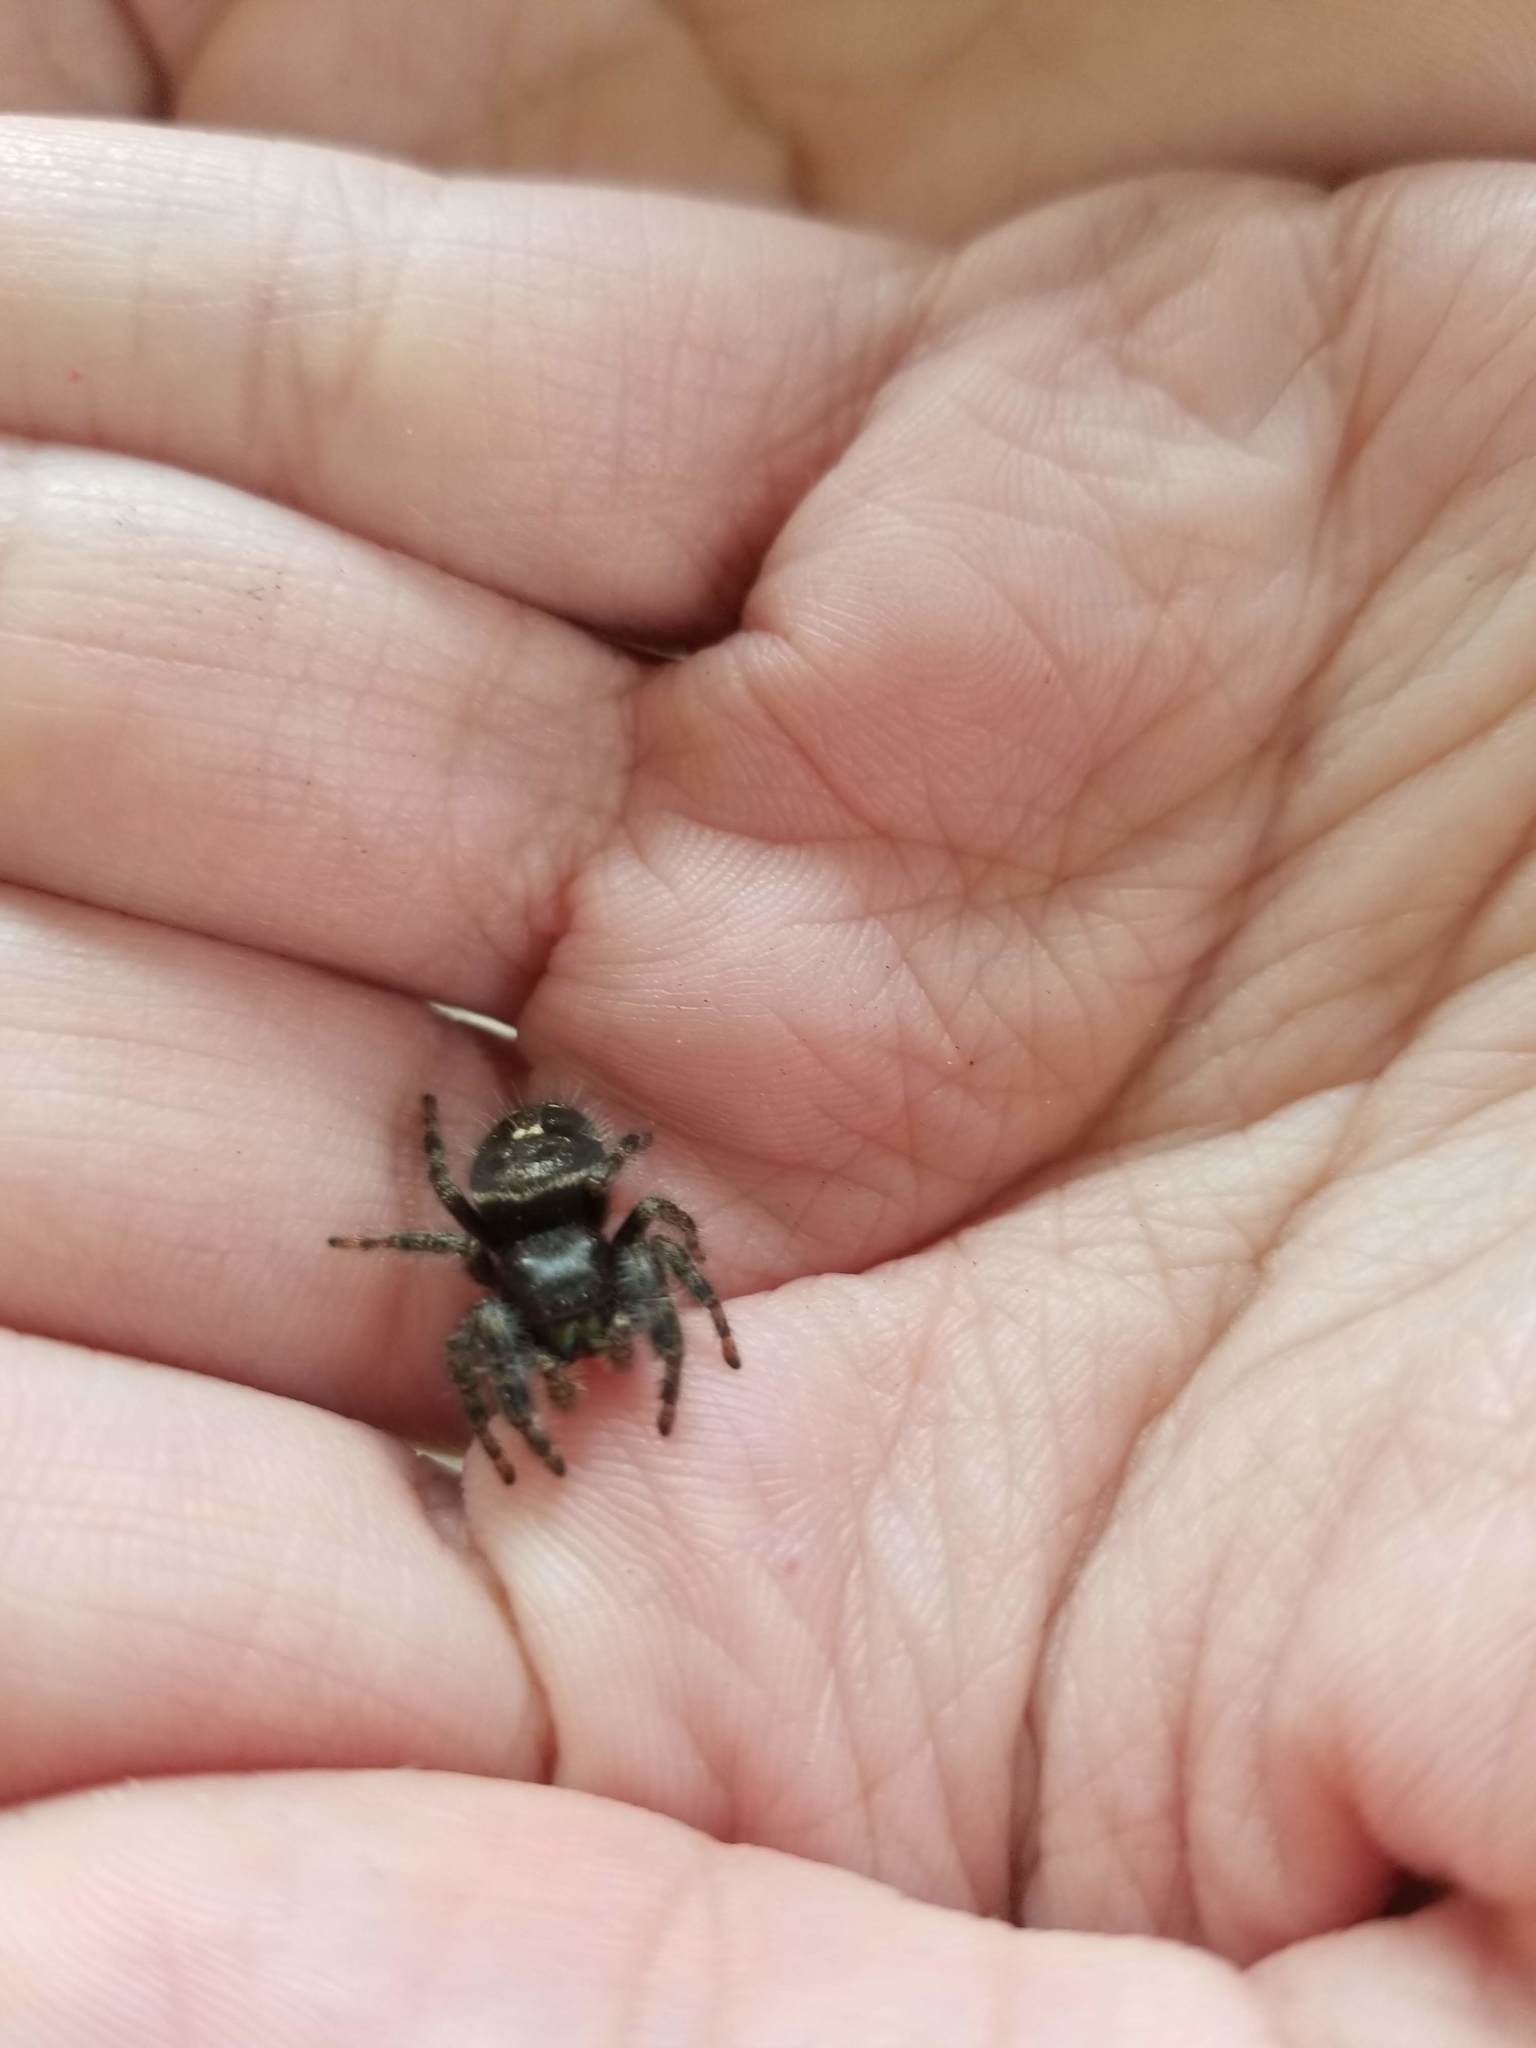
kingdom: Animalia
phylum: Arthropoda
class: Arachnida
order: Araneae
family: Salticidae
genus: Phidippus
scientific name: Phidippus audax
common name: Bold jumper
